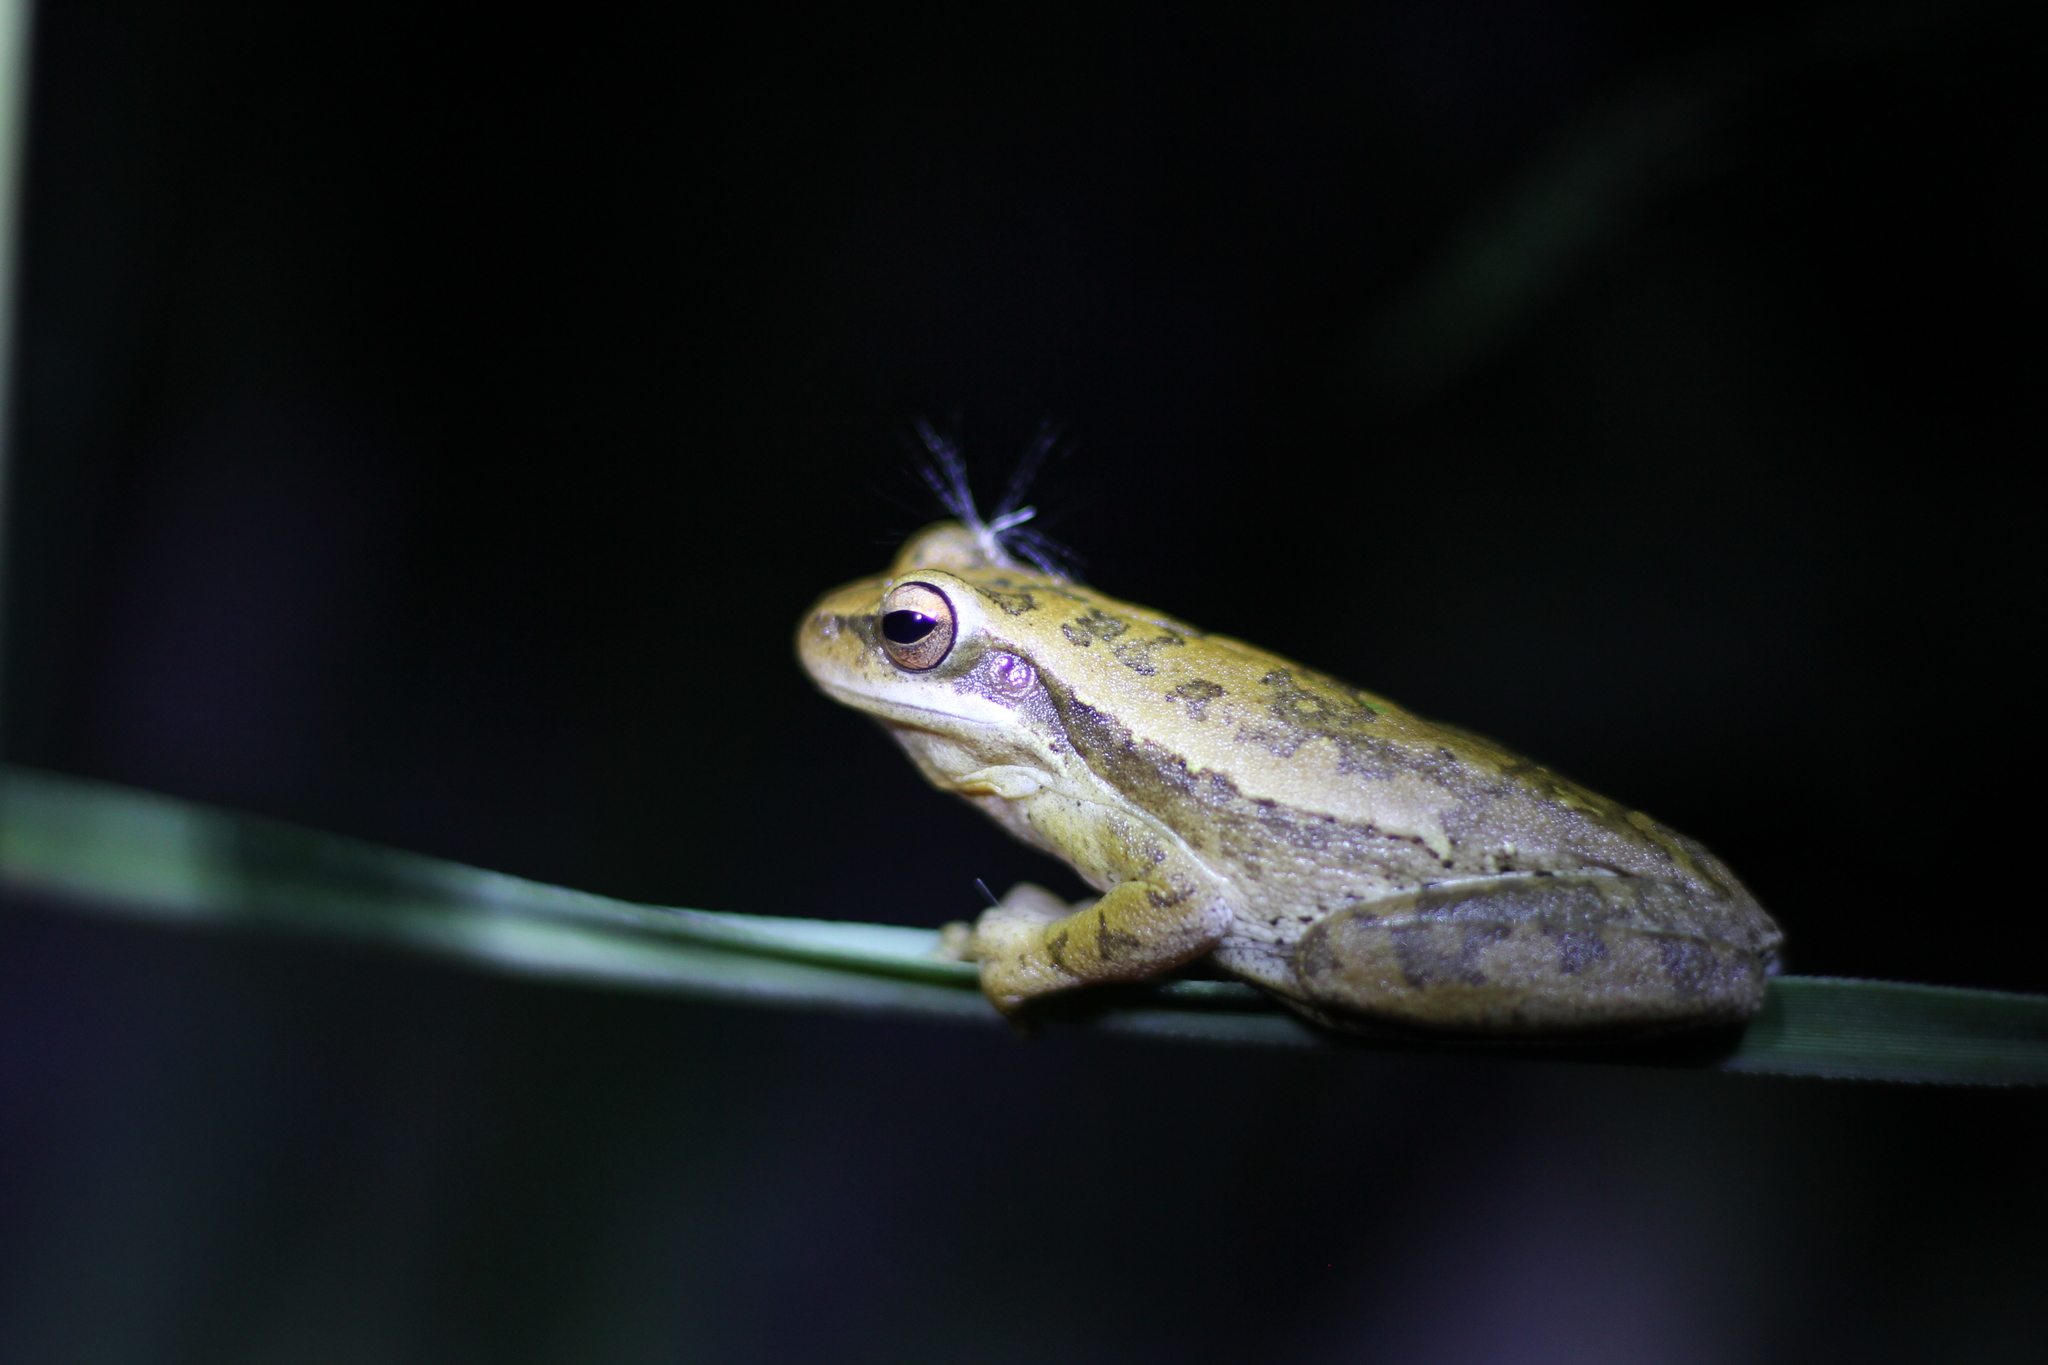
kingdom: Animalia
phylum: Chordata
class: Amphibia
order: Anura
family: Hylidae
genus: Boana
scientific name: Boana pulchella
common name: Montevideo treefrog
